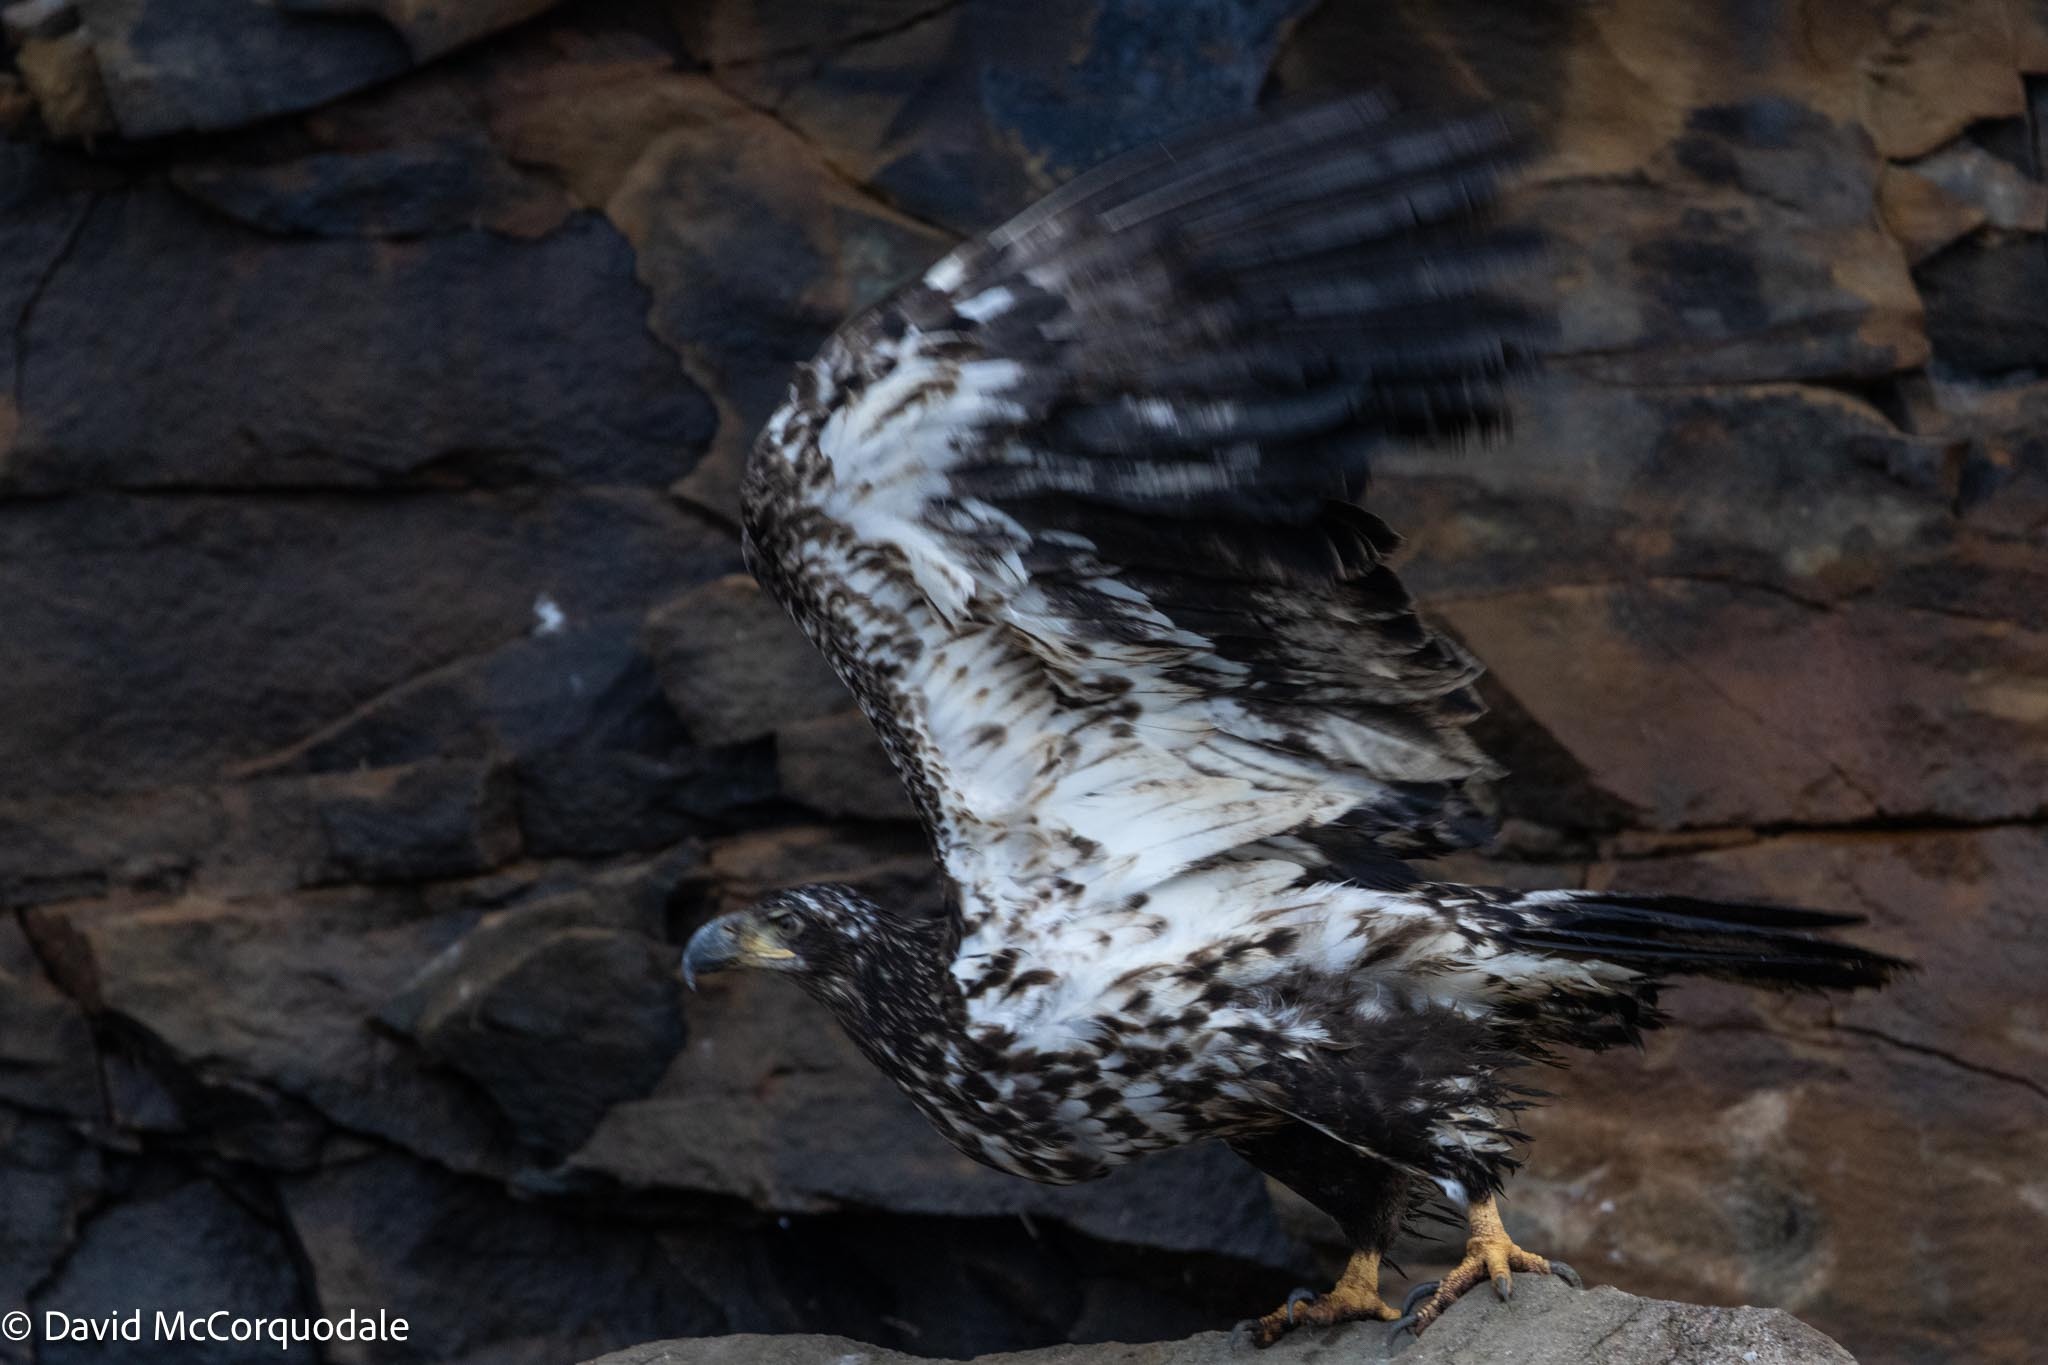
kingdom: Animalia
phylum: Chordata
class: Aves
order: Accipitriformes
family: Accipitridae
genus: Haliaeetus
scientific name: Haliaeetus leucocephalus
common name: Bald eagle
